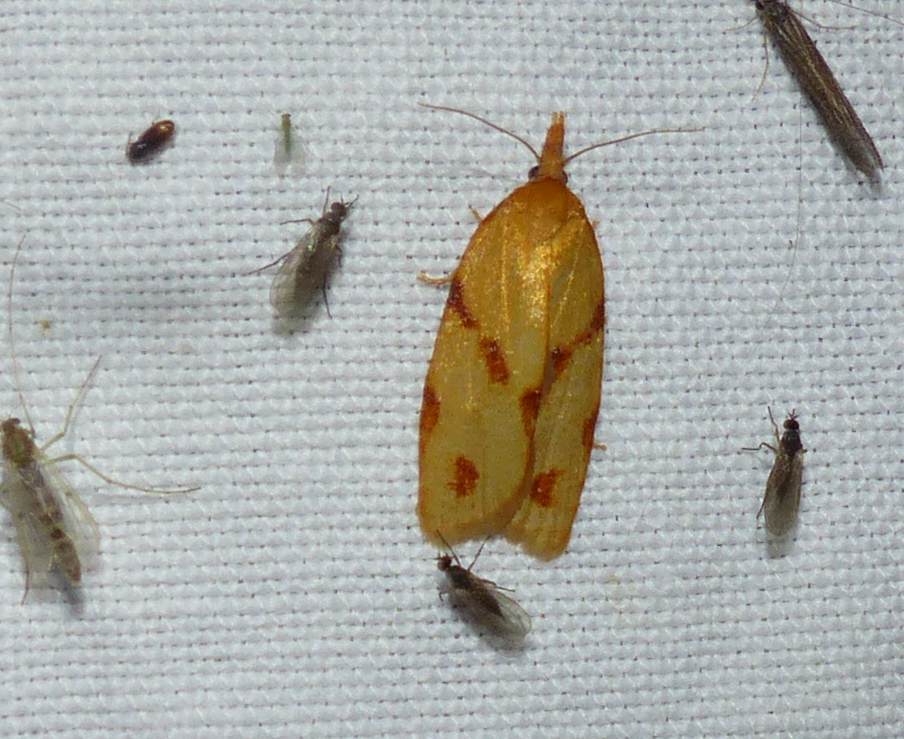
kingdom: Animalia
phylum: Arthropoda
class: Insecta
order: Lepidoptera
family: Tortricidae
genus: Sparganothis
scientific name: Sparganothis unifasciana
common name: One-lined sparganothis moth
